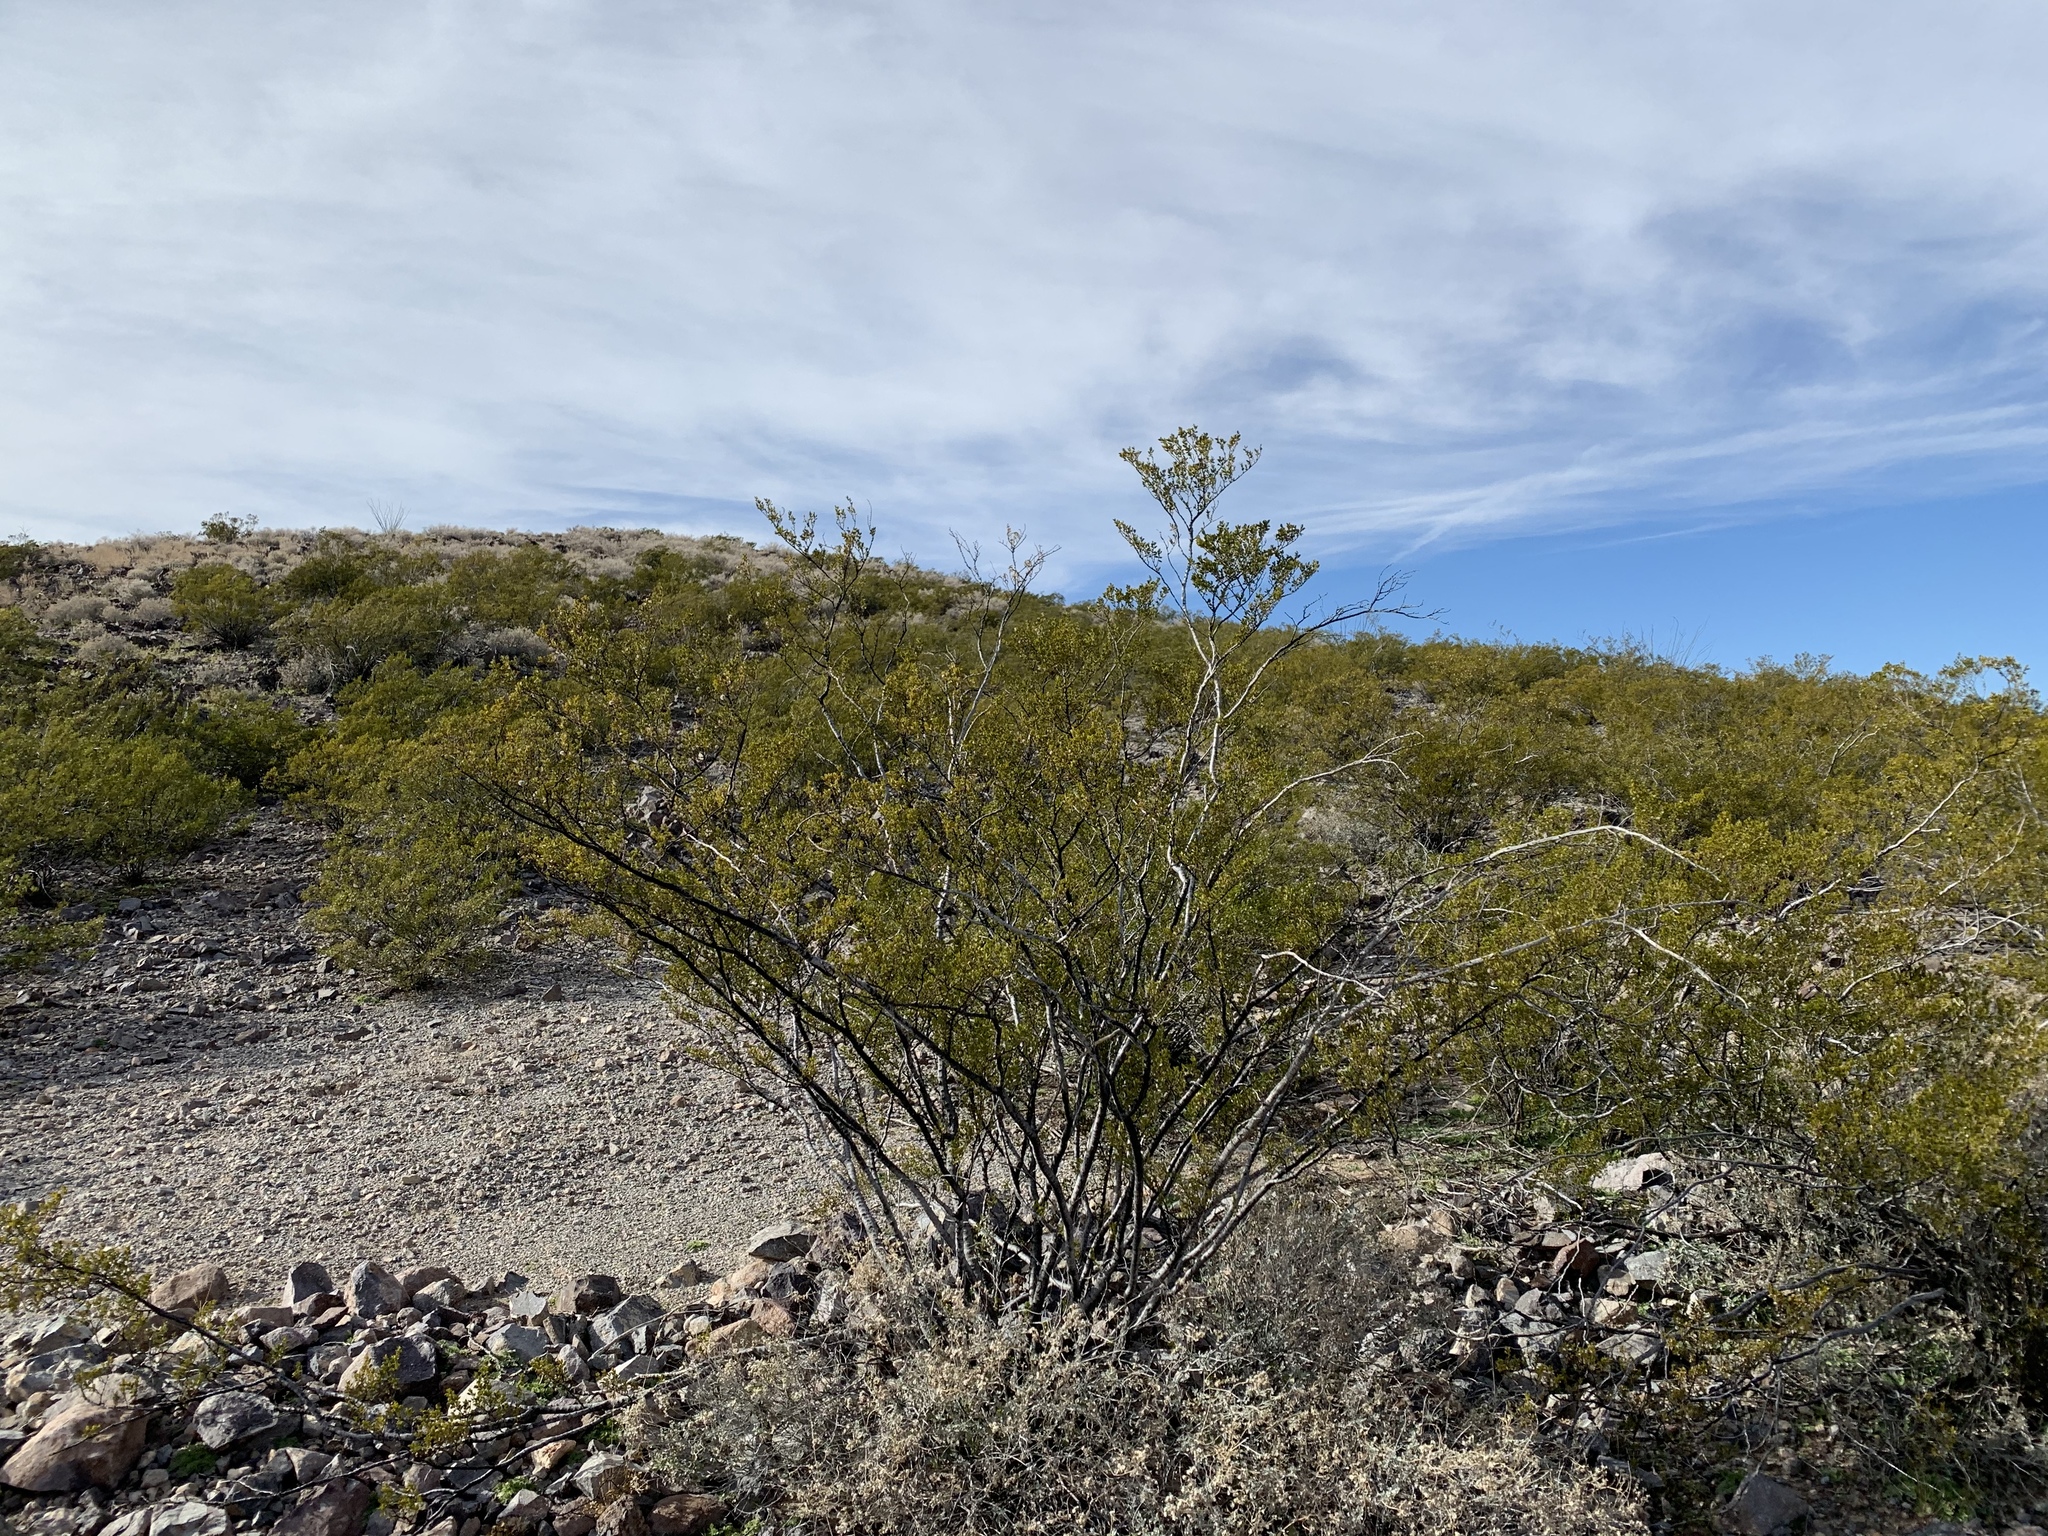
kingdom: Plantae
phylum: Tracheophyta
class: Magnoliopsida
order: Zygophyllales
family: Zygophyllaceae
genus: Larrea
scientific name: Larrea tridentata
